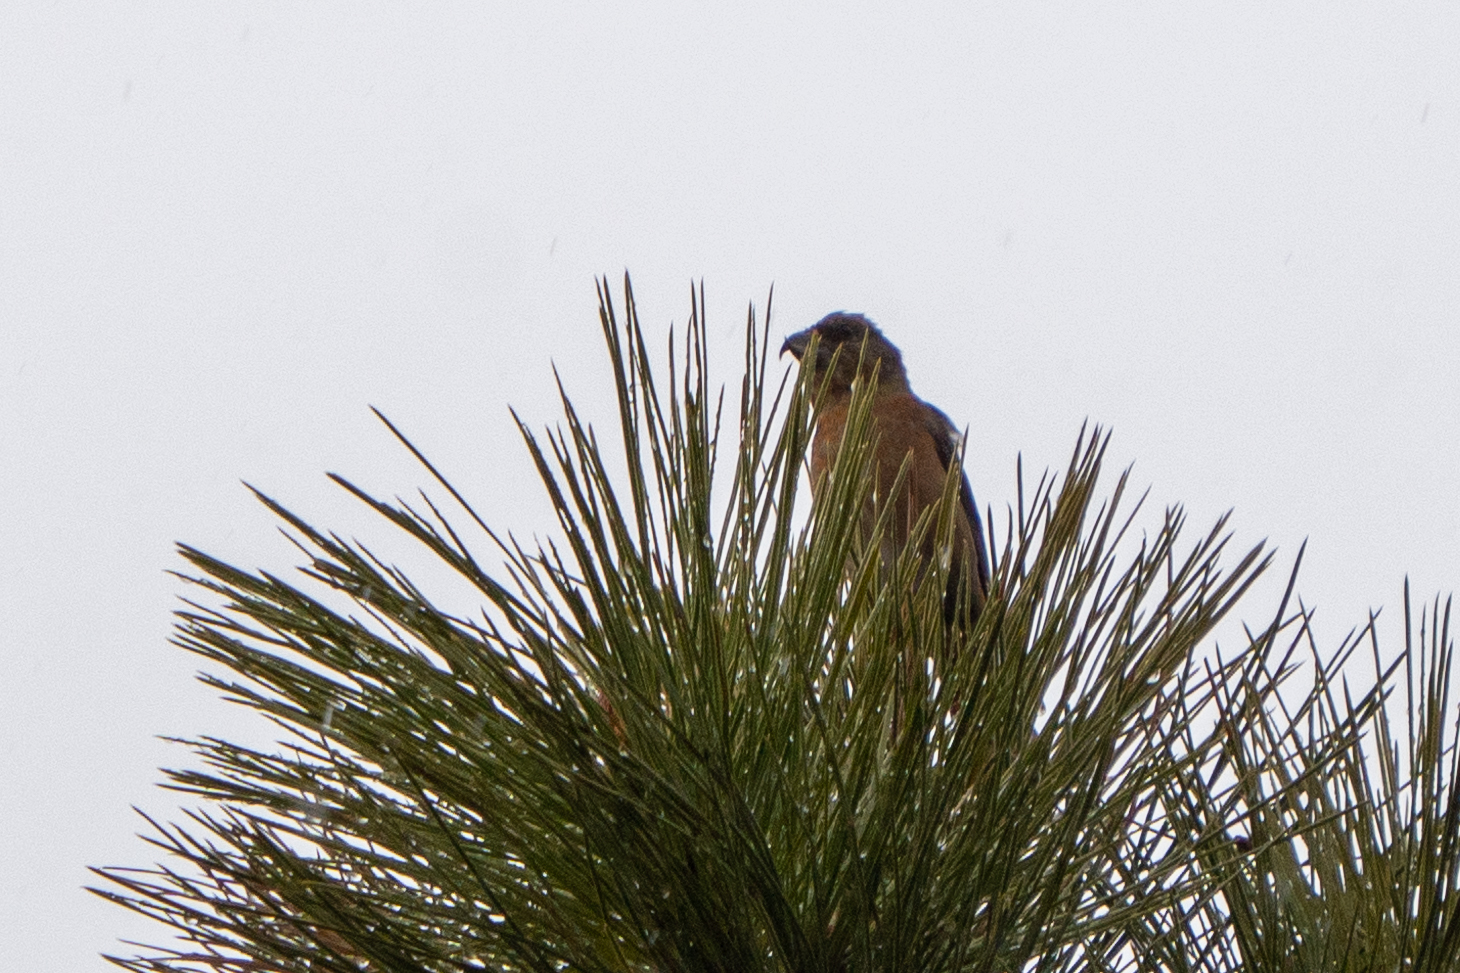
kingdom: Animalia
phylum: Chordata
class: Aves
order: Passeriformes
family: Fringillidae
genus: Loxia
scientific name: Loxia curvirostra
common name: Red crossbill
